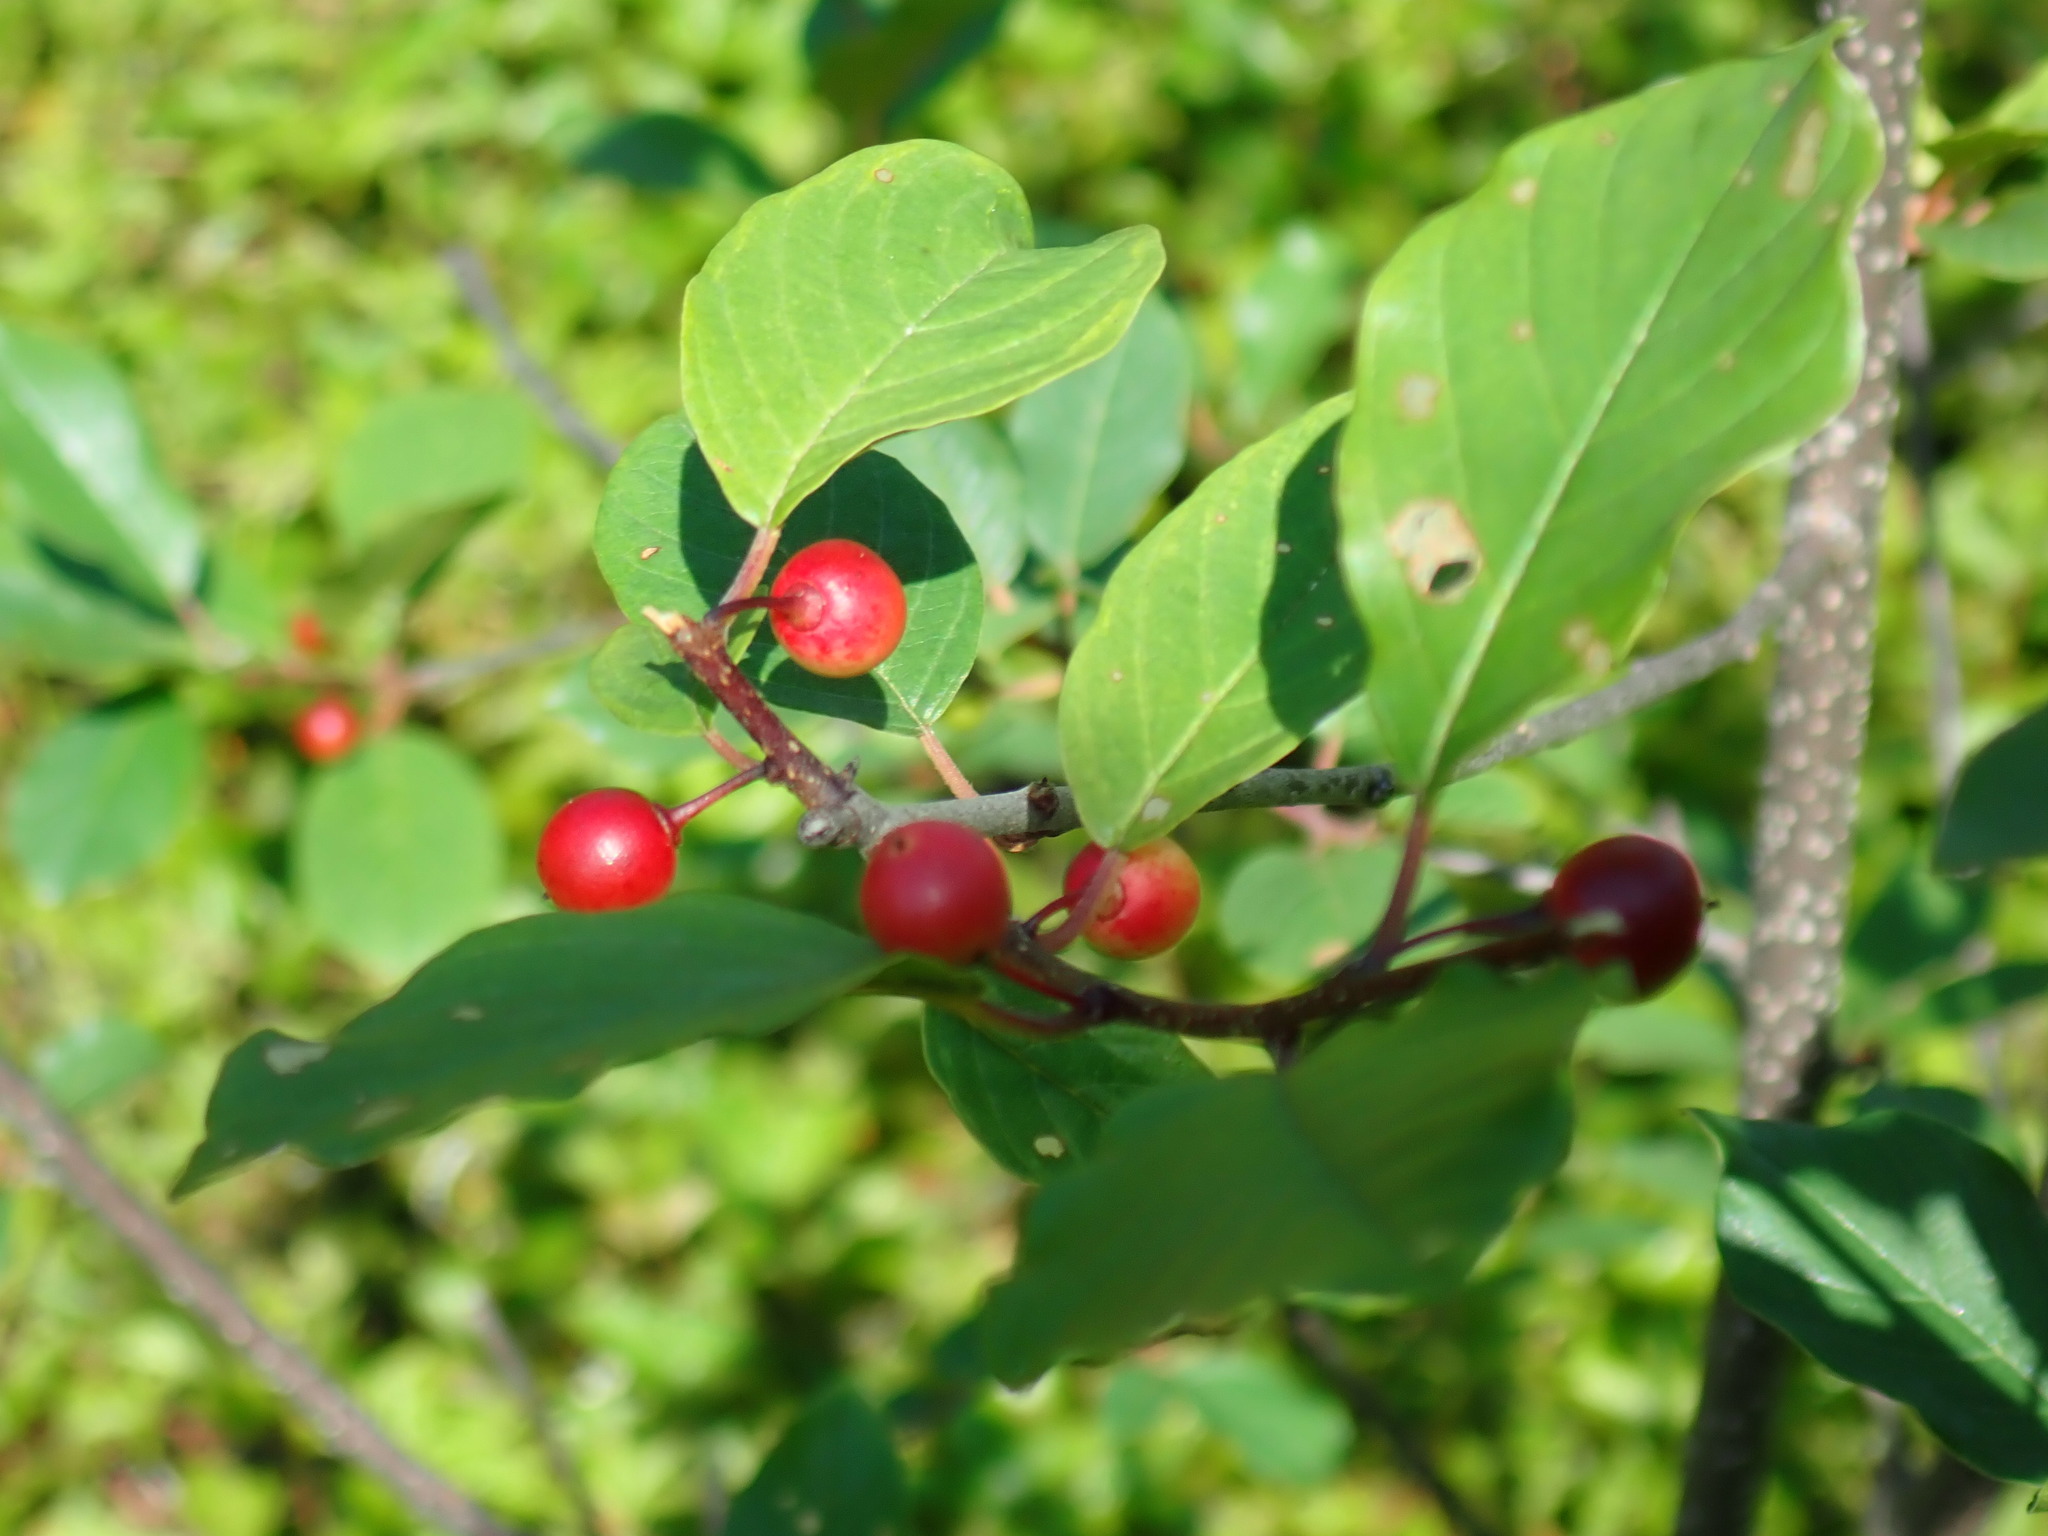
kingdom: Plantae
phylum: Tracheophyta
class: Magnoliopsida
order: Rosales
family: Rhamnaceae
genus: Frangula
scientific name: Frangula alnus
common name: Alder buckthorn
